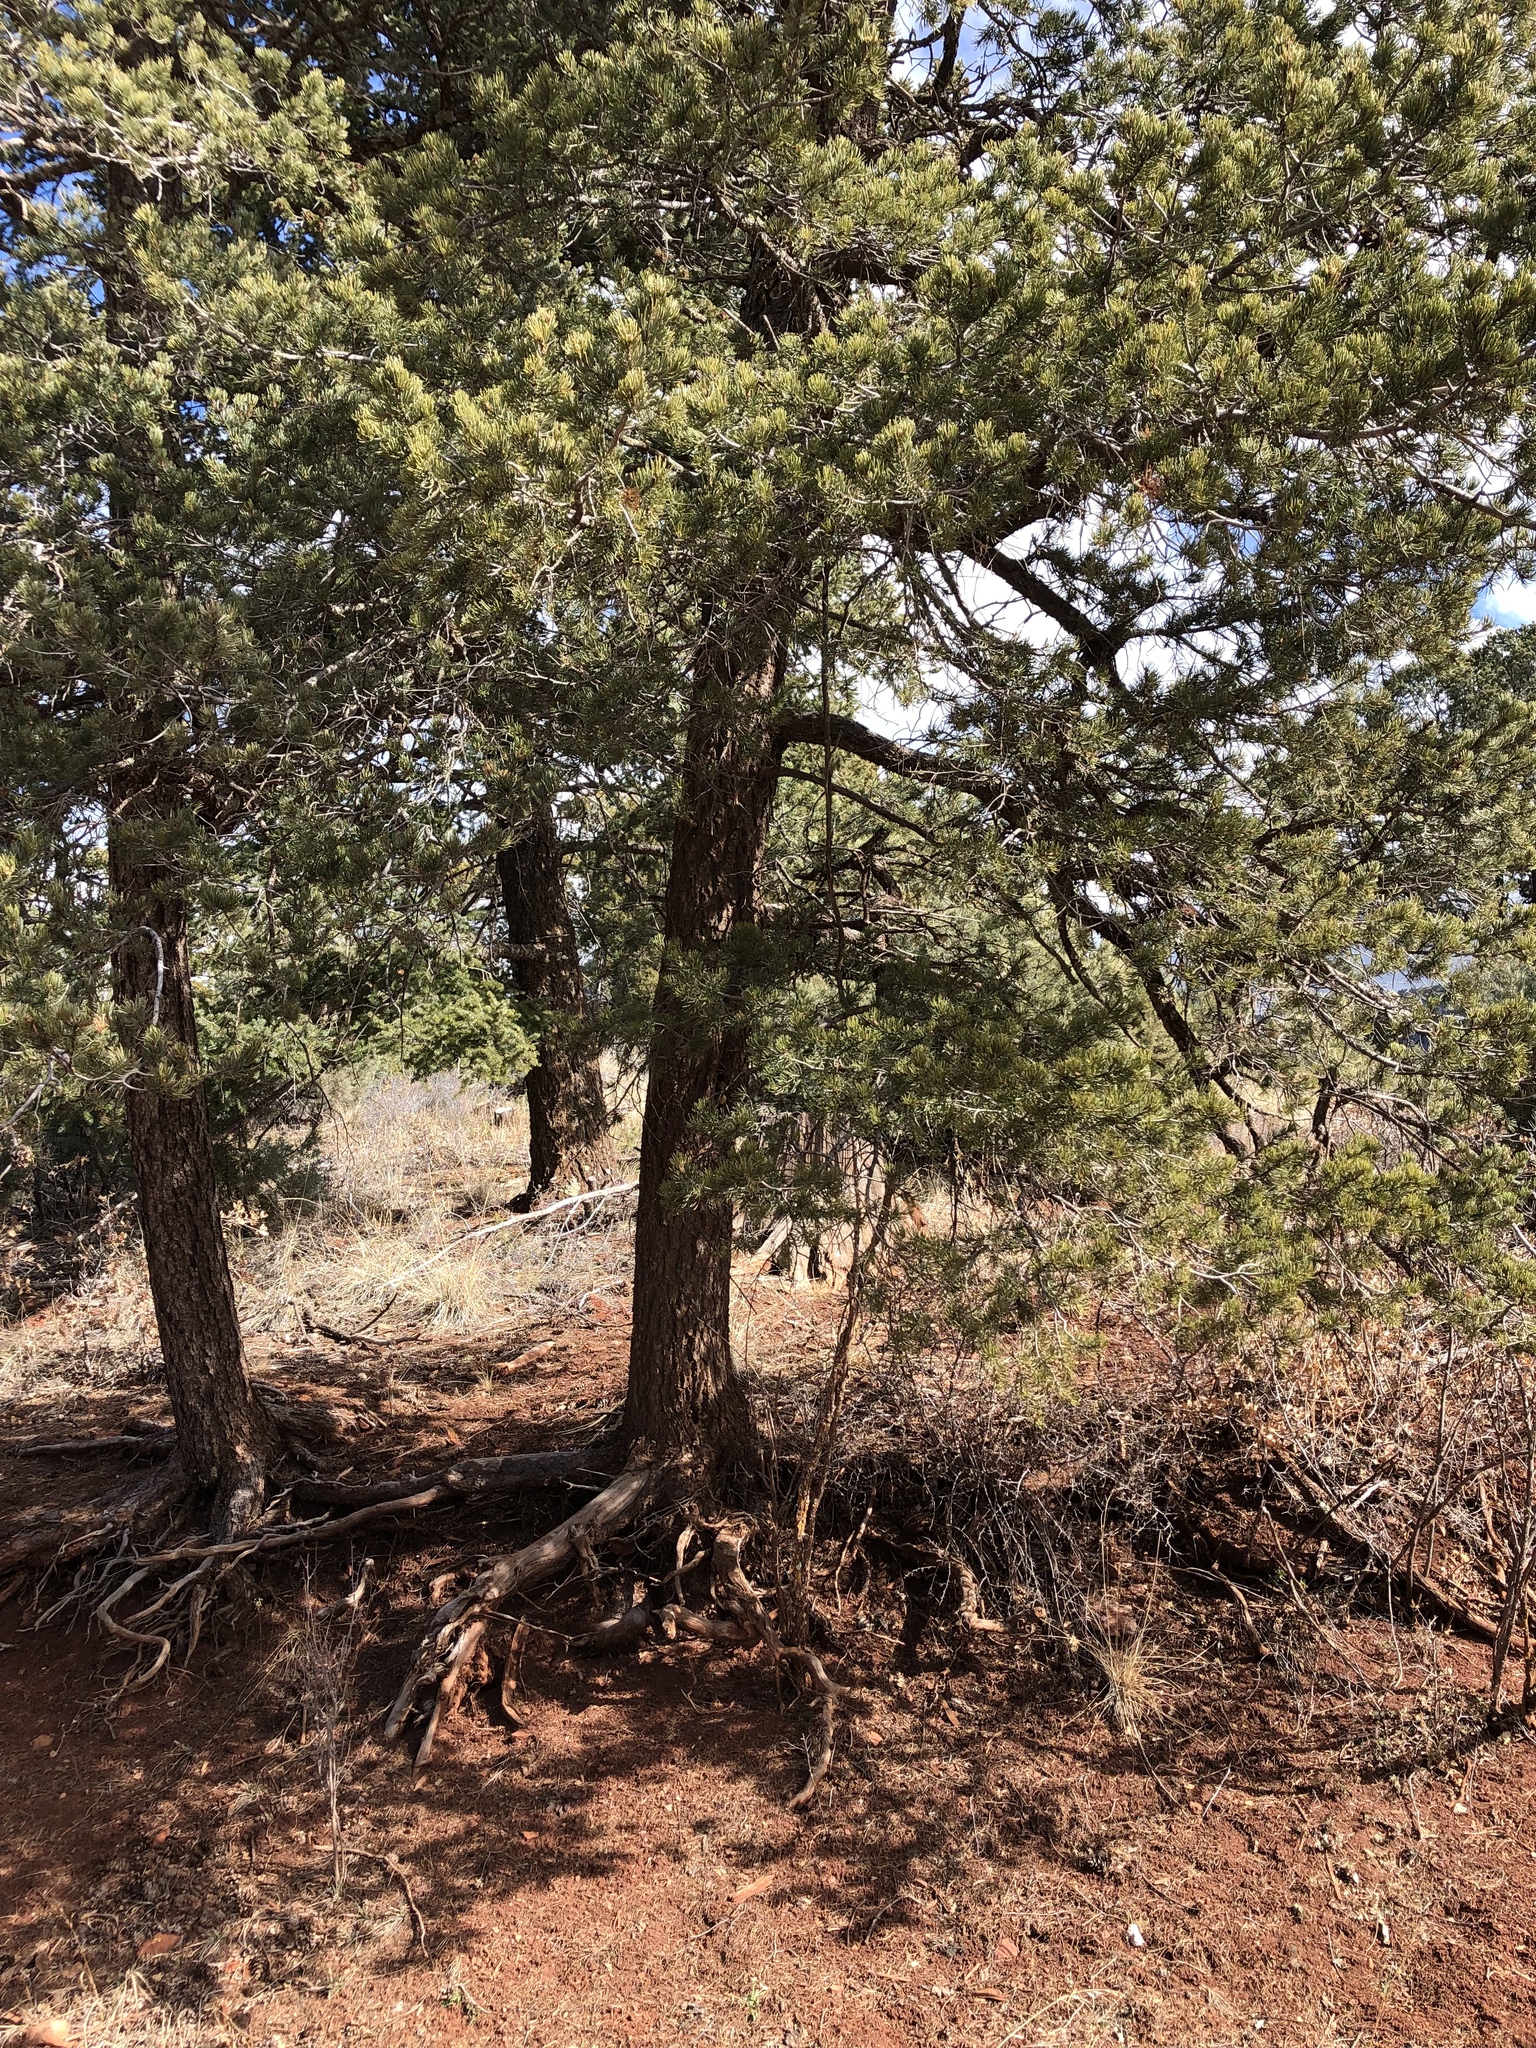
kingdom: Plantae
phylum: Tracheophyta
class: Pinopsida
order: Pinales
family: Pinaceae
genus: Pinus
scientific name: Pinus edulis
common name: Colorado pinyon
